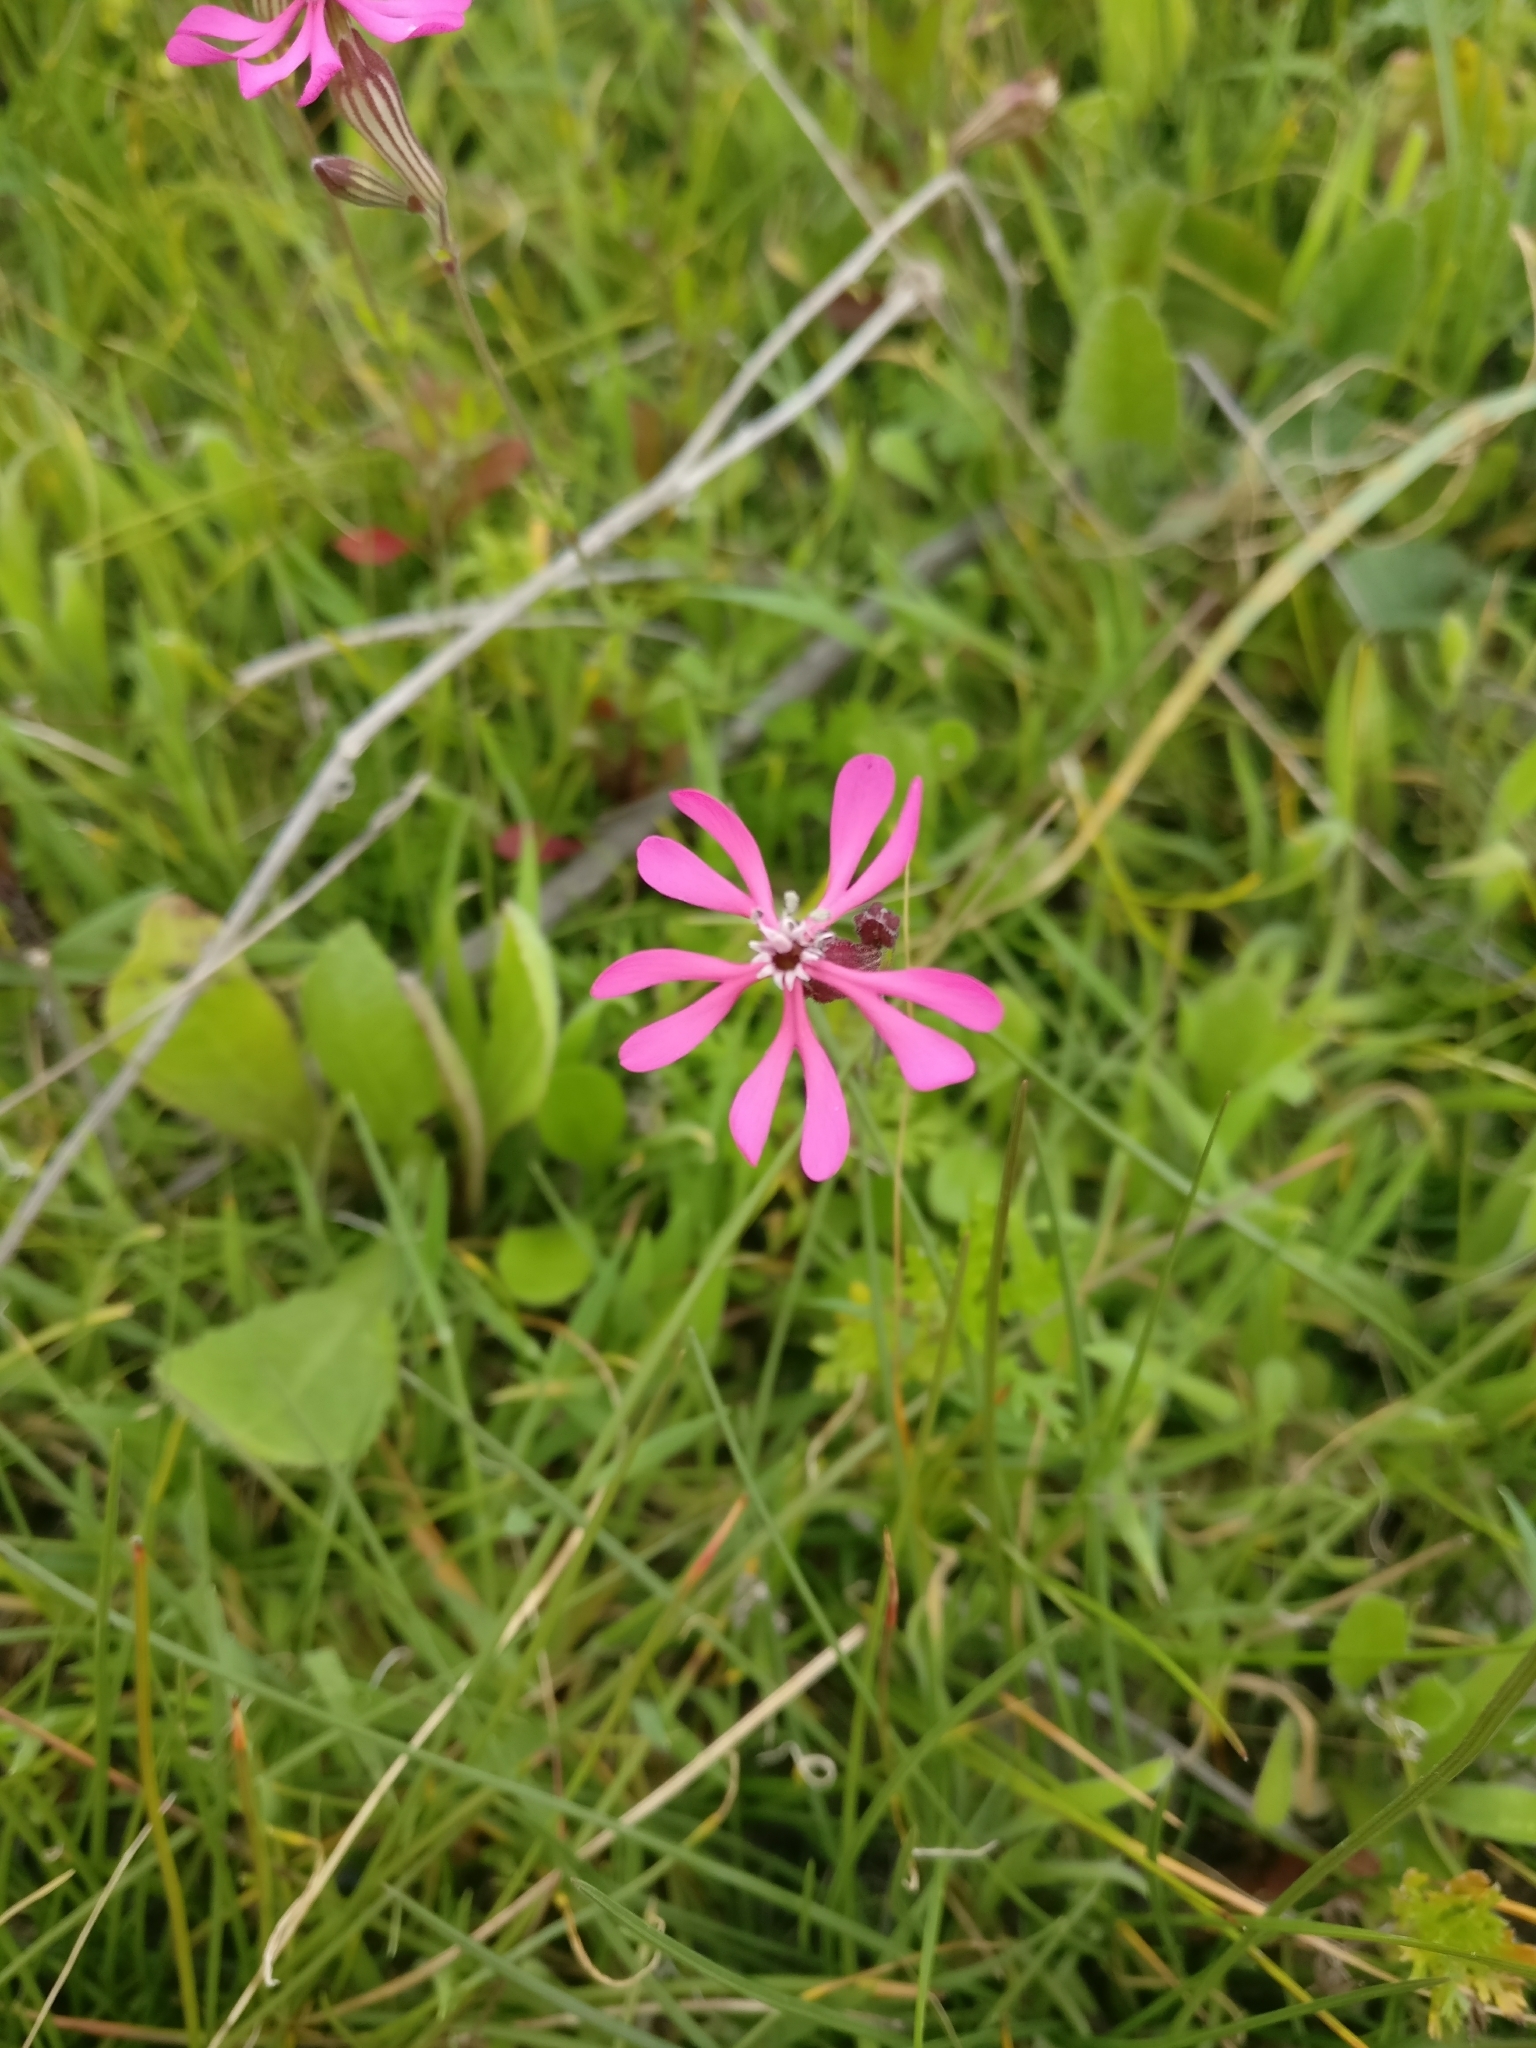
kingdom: Plantae
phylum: Tracheophyta
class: Magnoliopsida
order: Caryophyllales
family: Caryophyllaceae
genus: Silene
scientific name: Silene colorata
